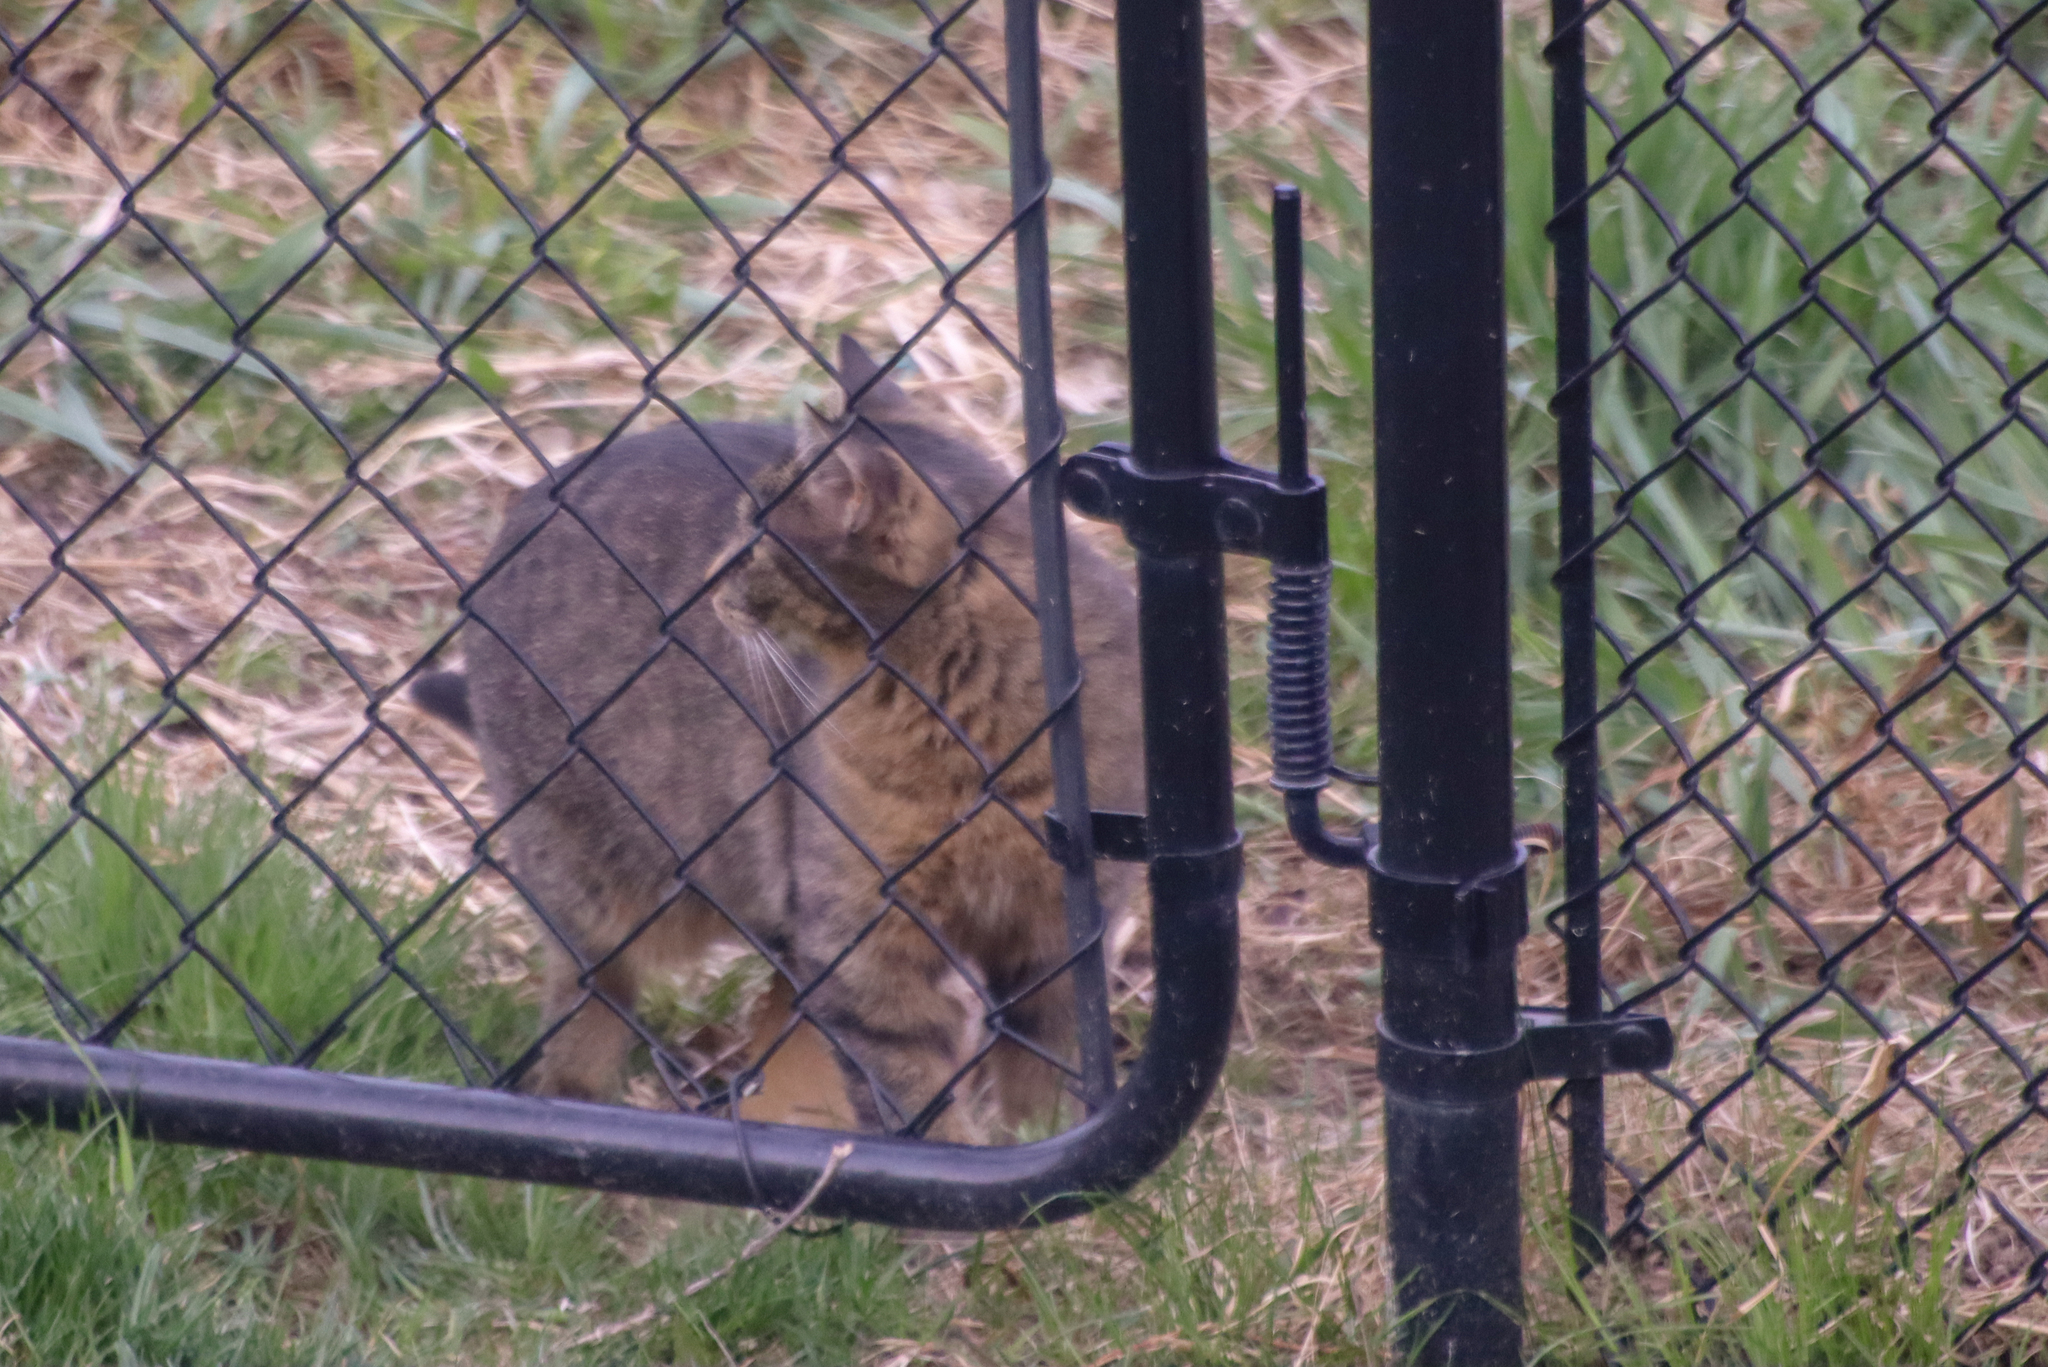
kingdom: Animalia
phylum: Chordata
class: Mammalia
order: Carnivora
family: Felidae
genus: Felis
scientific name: Felis catus
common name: Domestic cat
